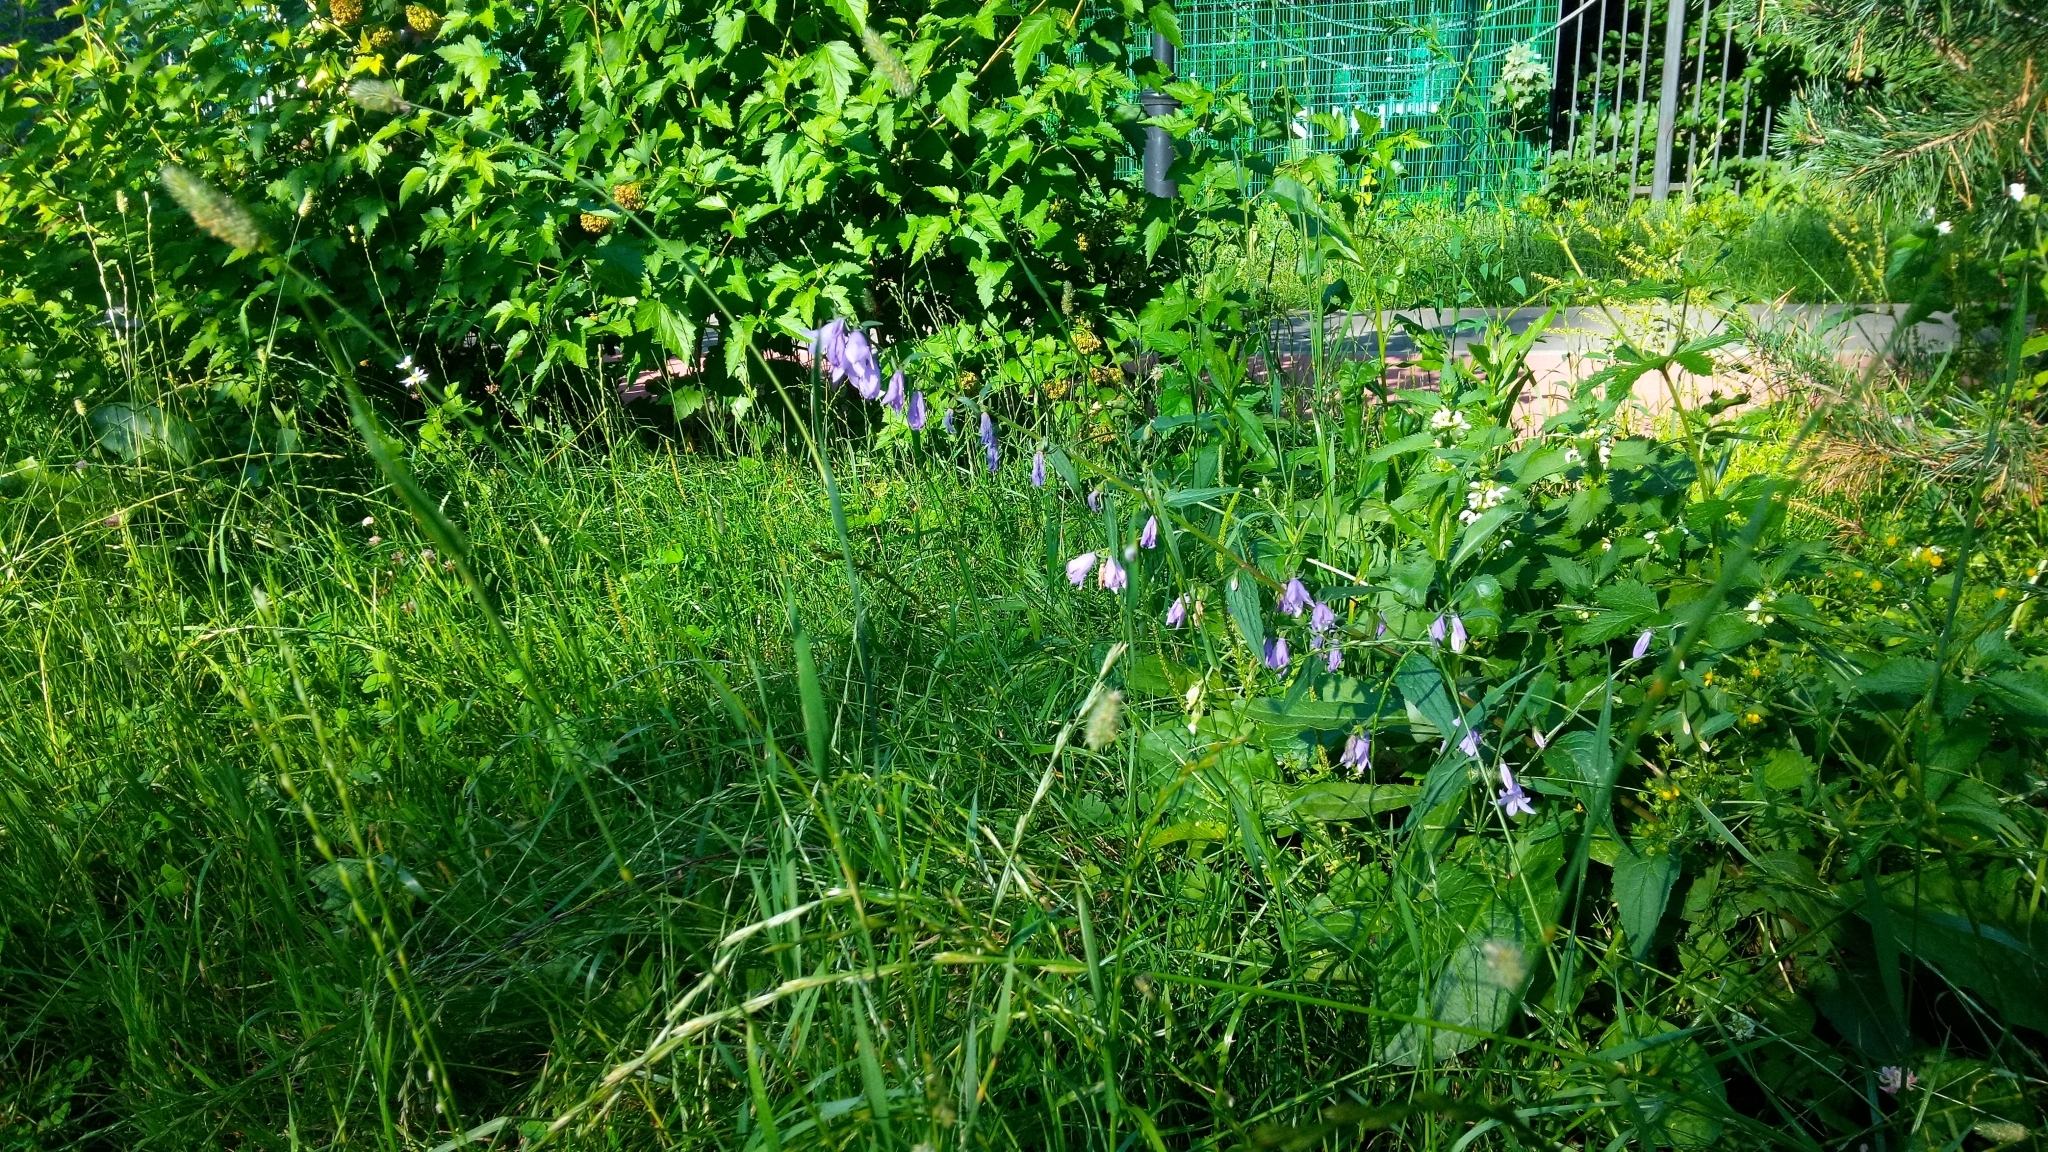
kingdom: Plantae
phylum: Tracheophyta
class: Magnoliopsida
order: Asterales
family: Campanulaceae
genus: Campanula
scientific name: Campanula rapunculoides
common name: Creeping bellflower
